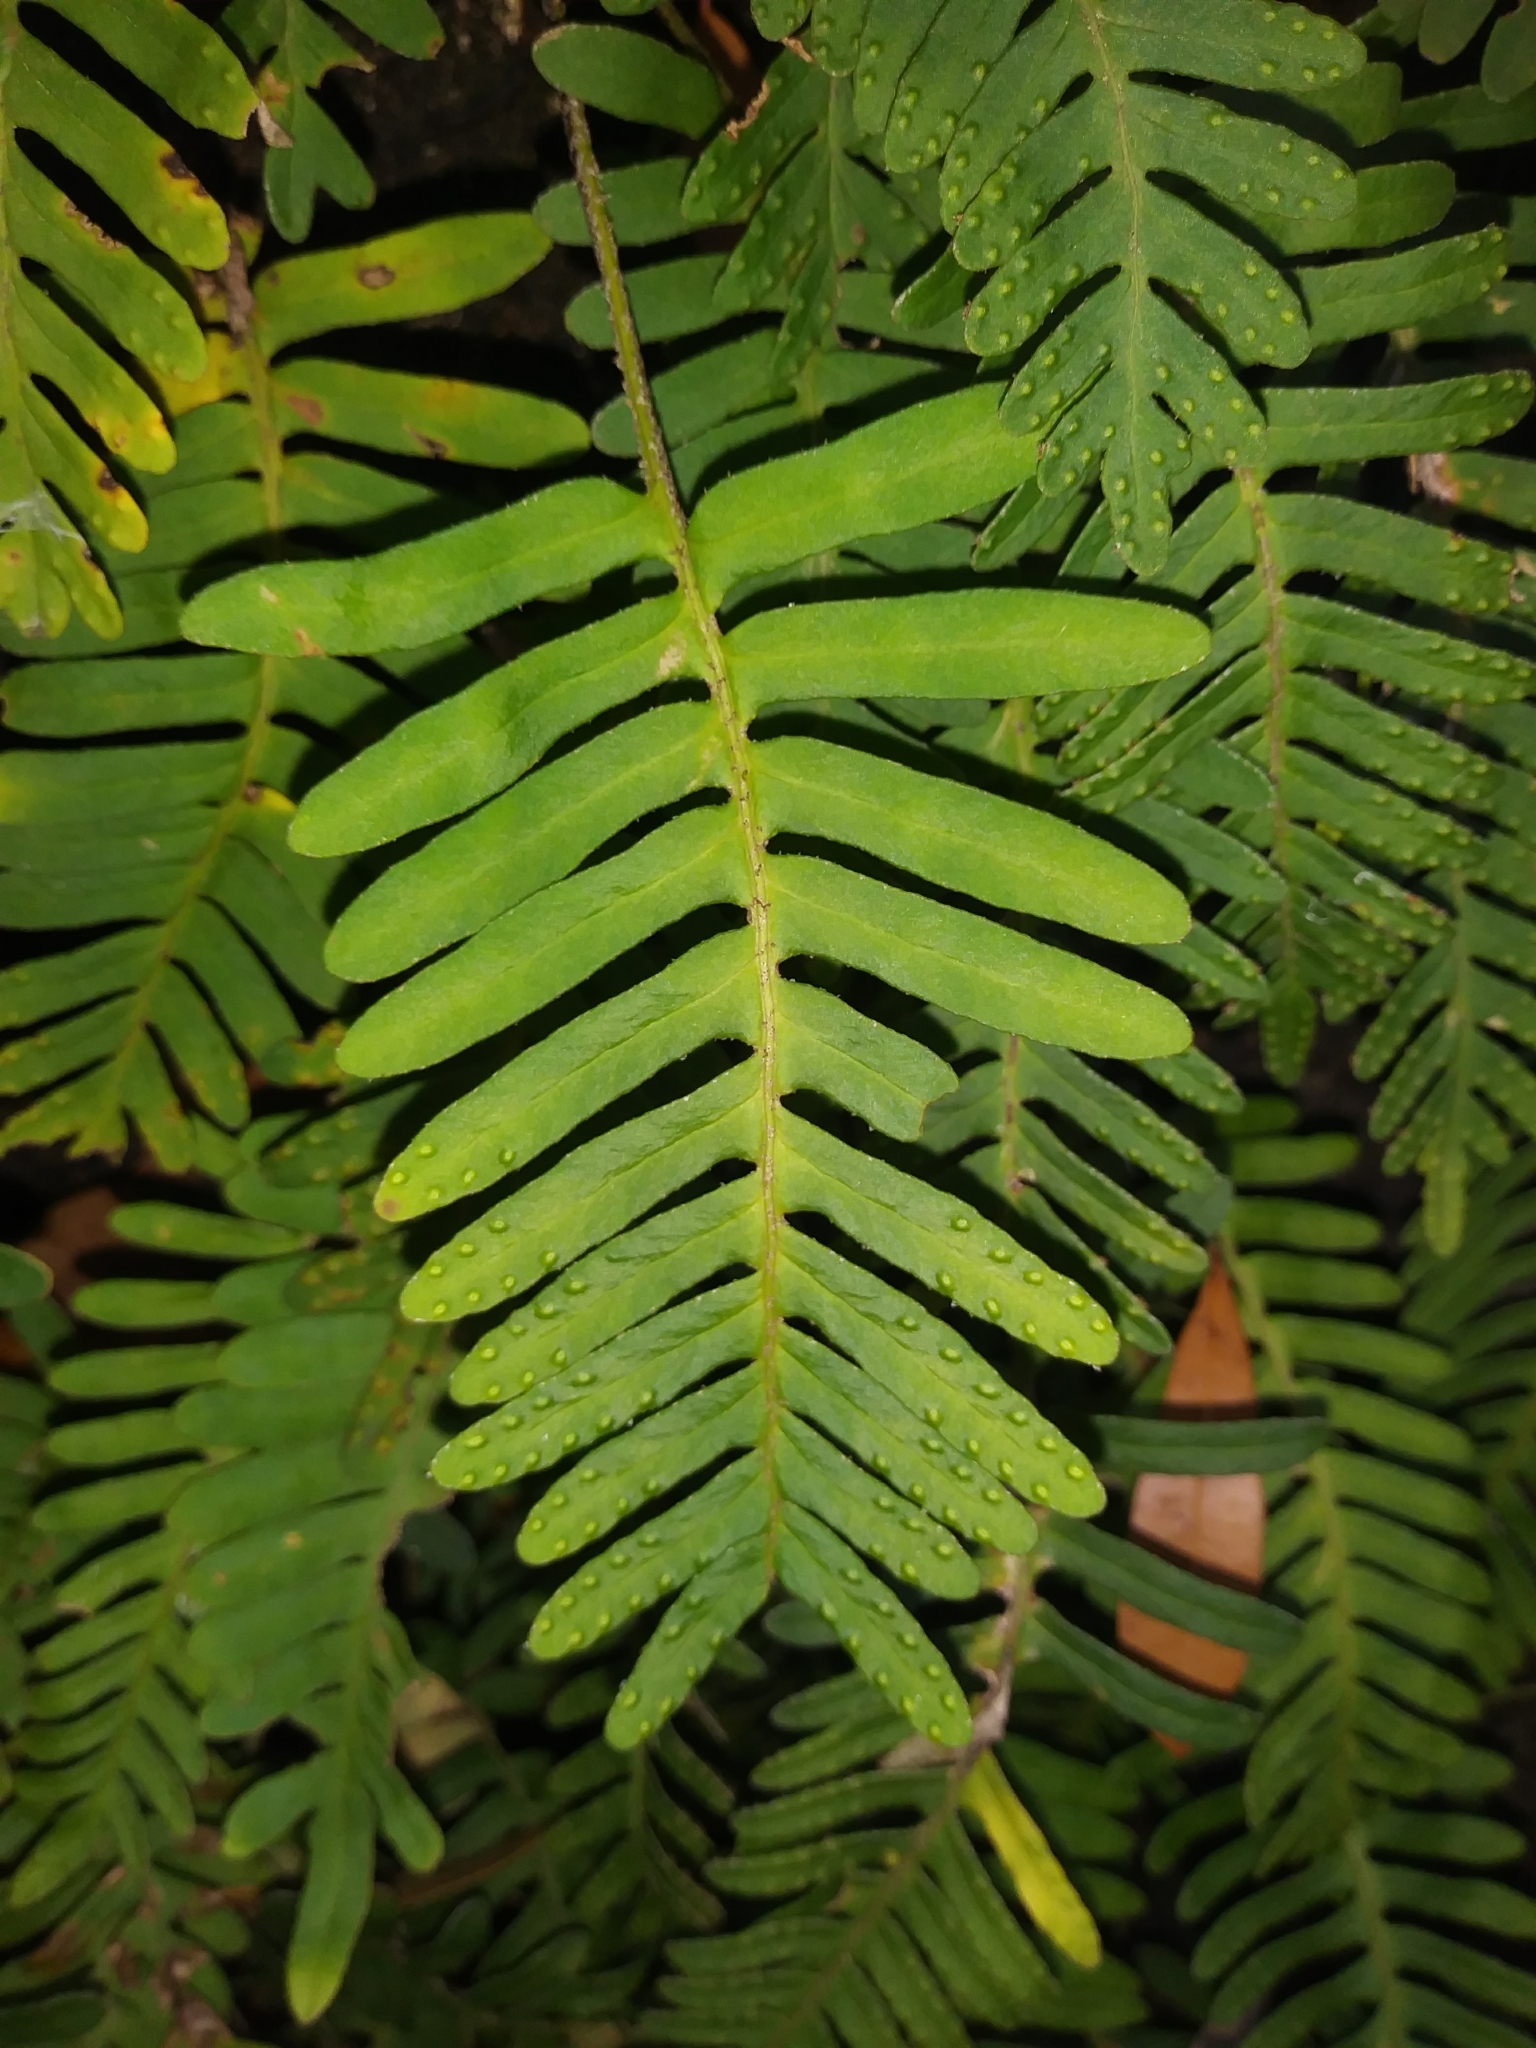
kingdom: Plantae
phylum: Tracheophyta
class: Polypodiopsida
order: Polypodiales
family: Polypodiaceae
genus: Pleopeltis
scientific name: Pleopeltis michauxiana
